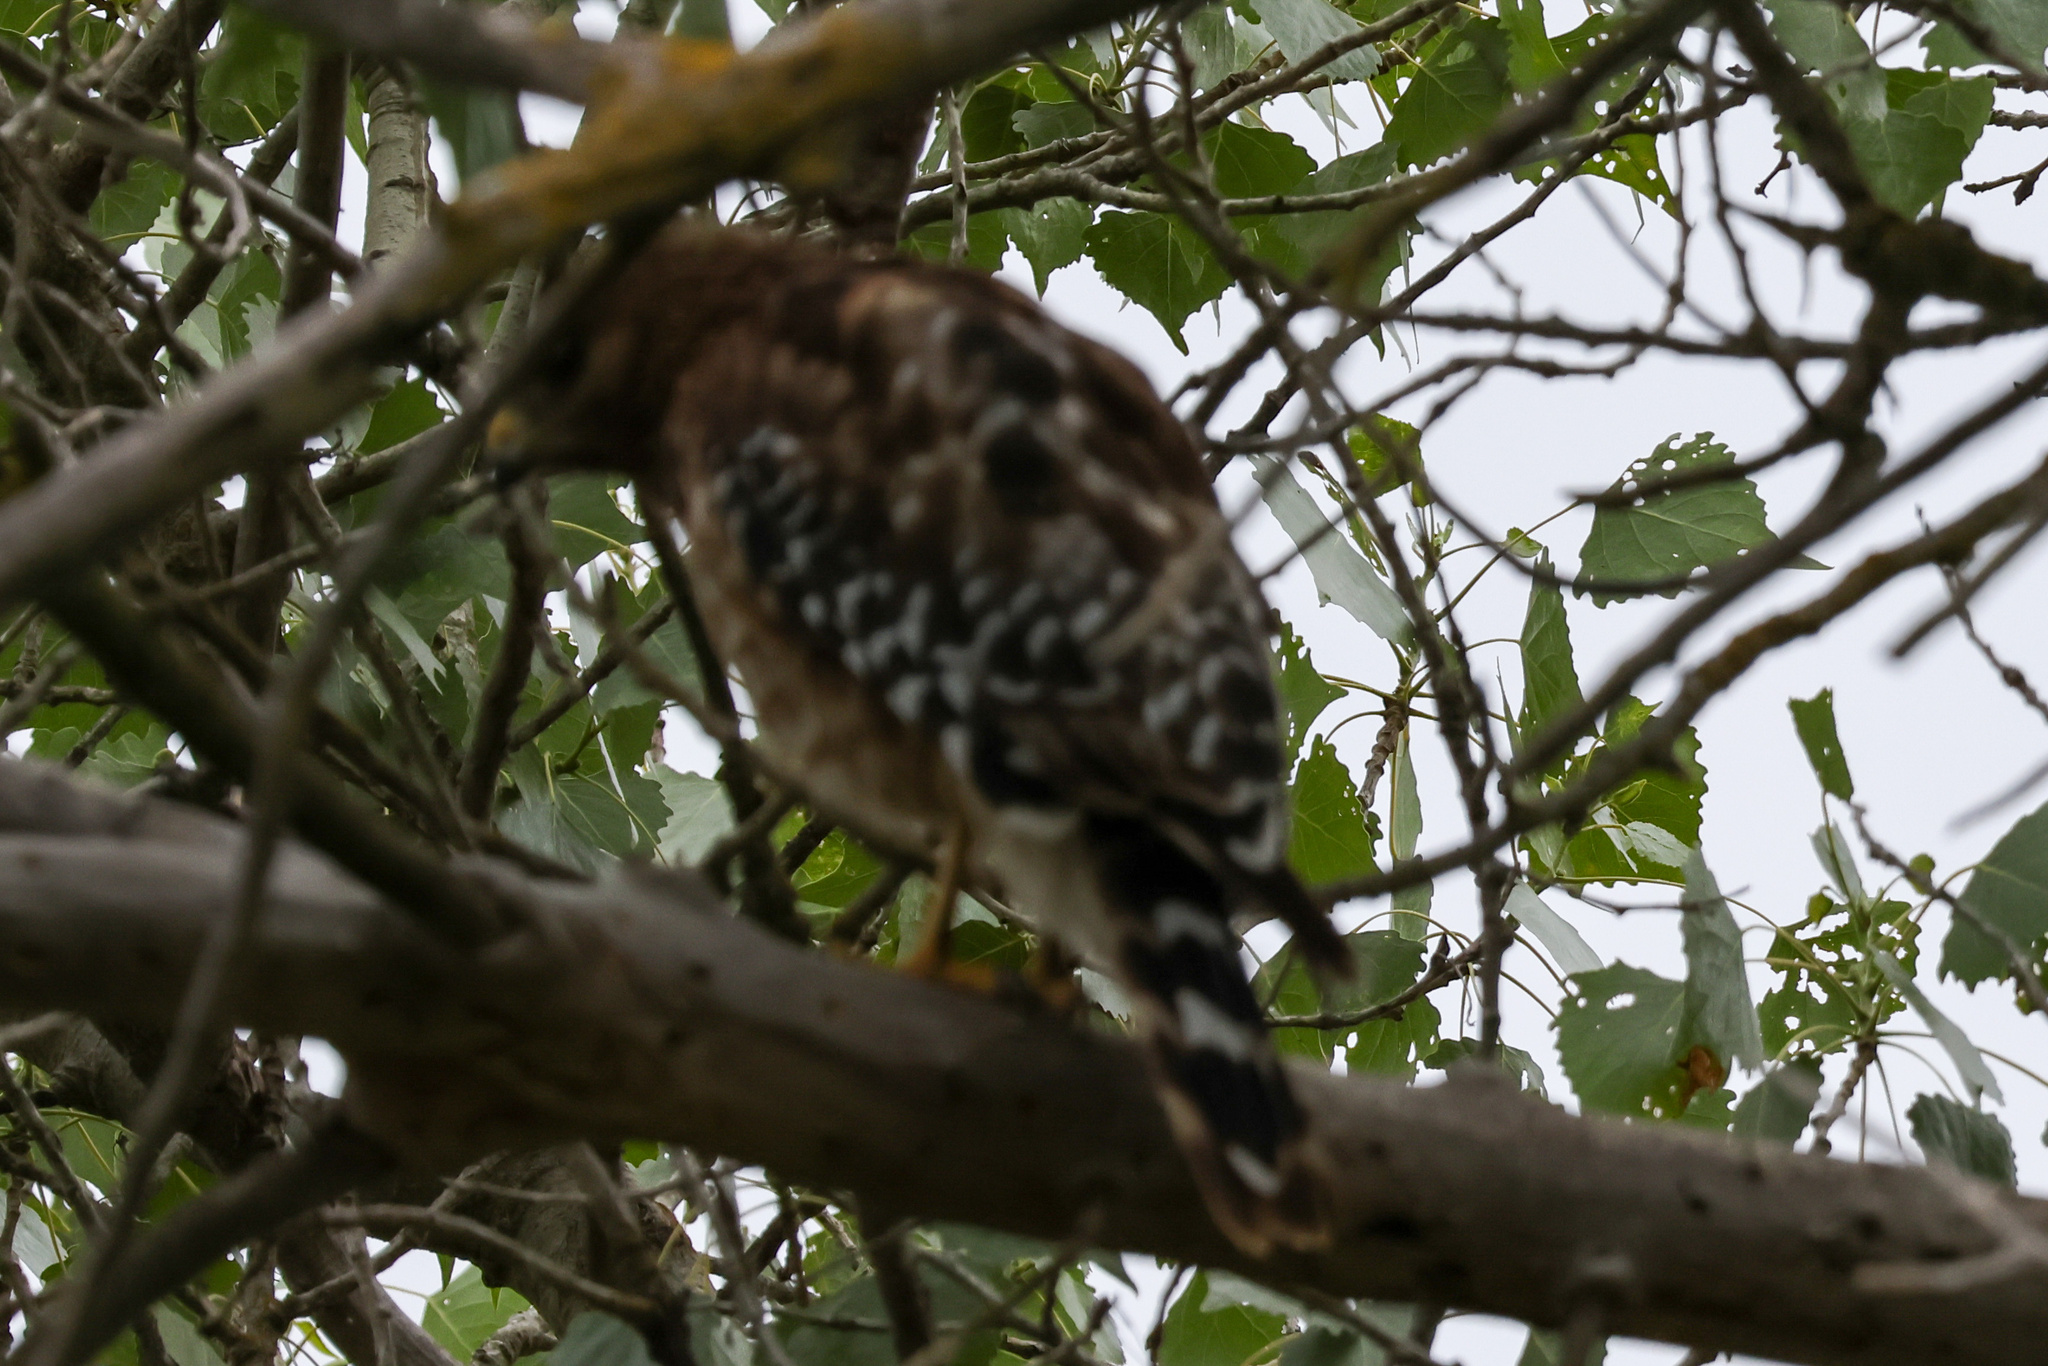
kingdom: Animalia
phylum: Chordata
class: Aves
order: Accipitriformes
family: Accipitridae
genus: Buteo
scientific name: Buteo lineatus
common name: Red-shouldered hawk
